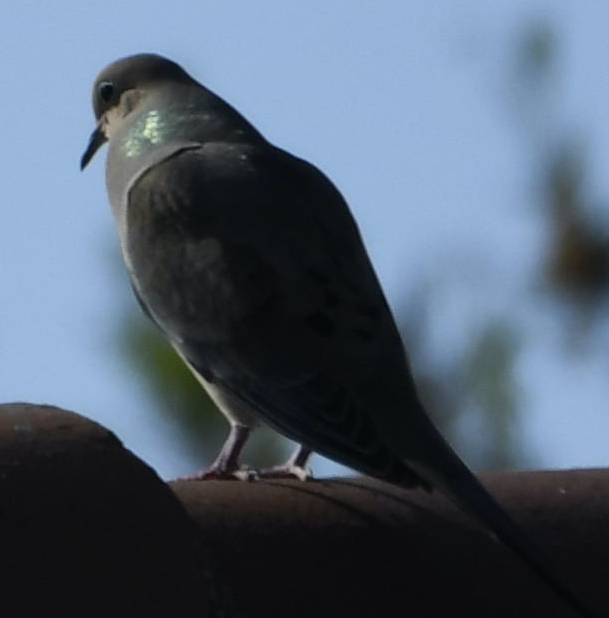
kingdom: Animalia
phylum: Chordata
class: Aves
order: Columbiformes
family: Columbidae
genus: Zenaida
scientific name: Zenaida macroura
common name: Mourning dove
